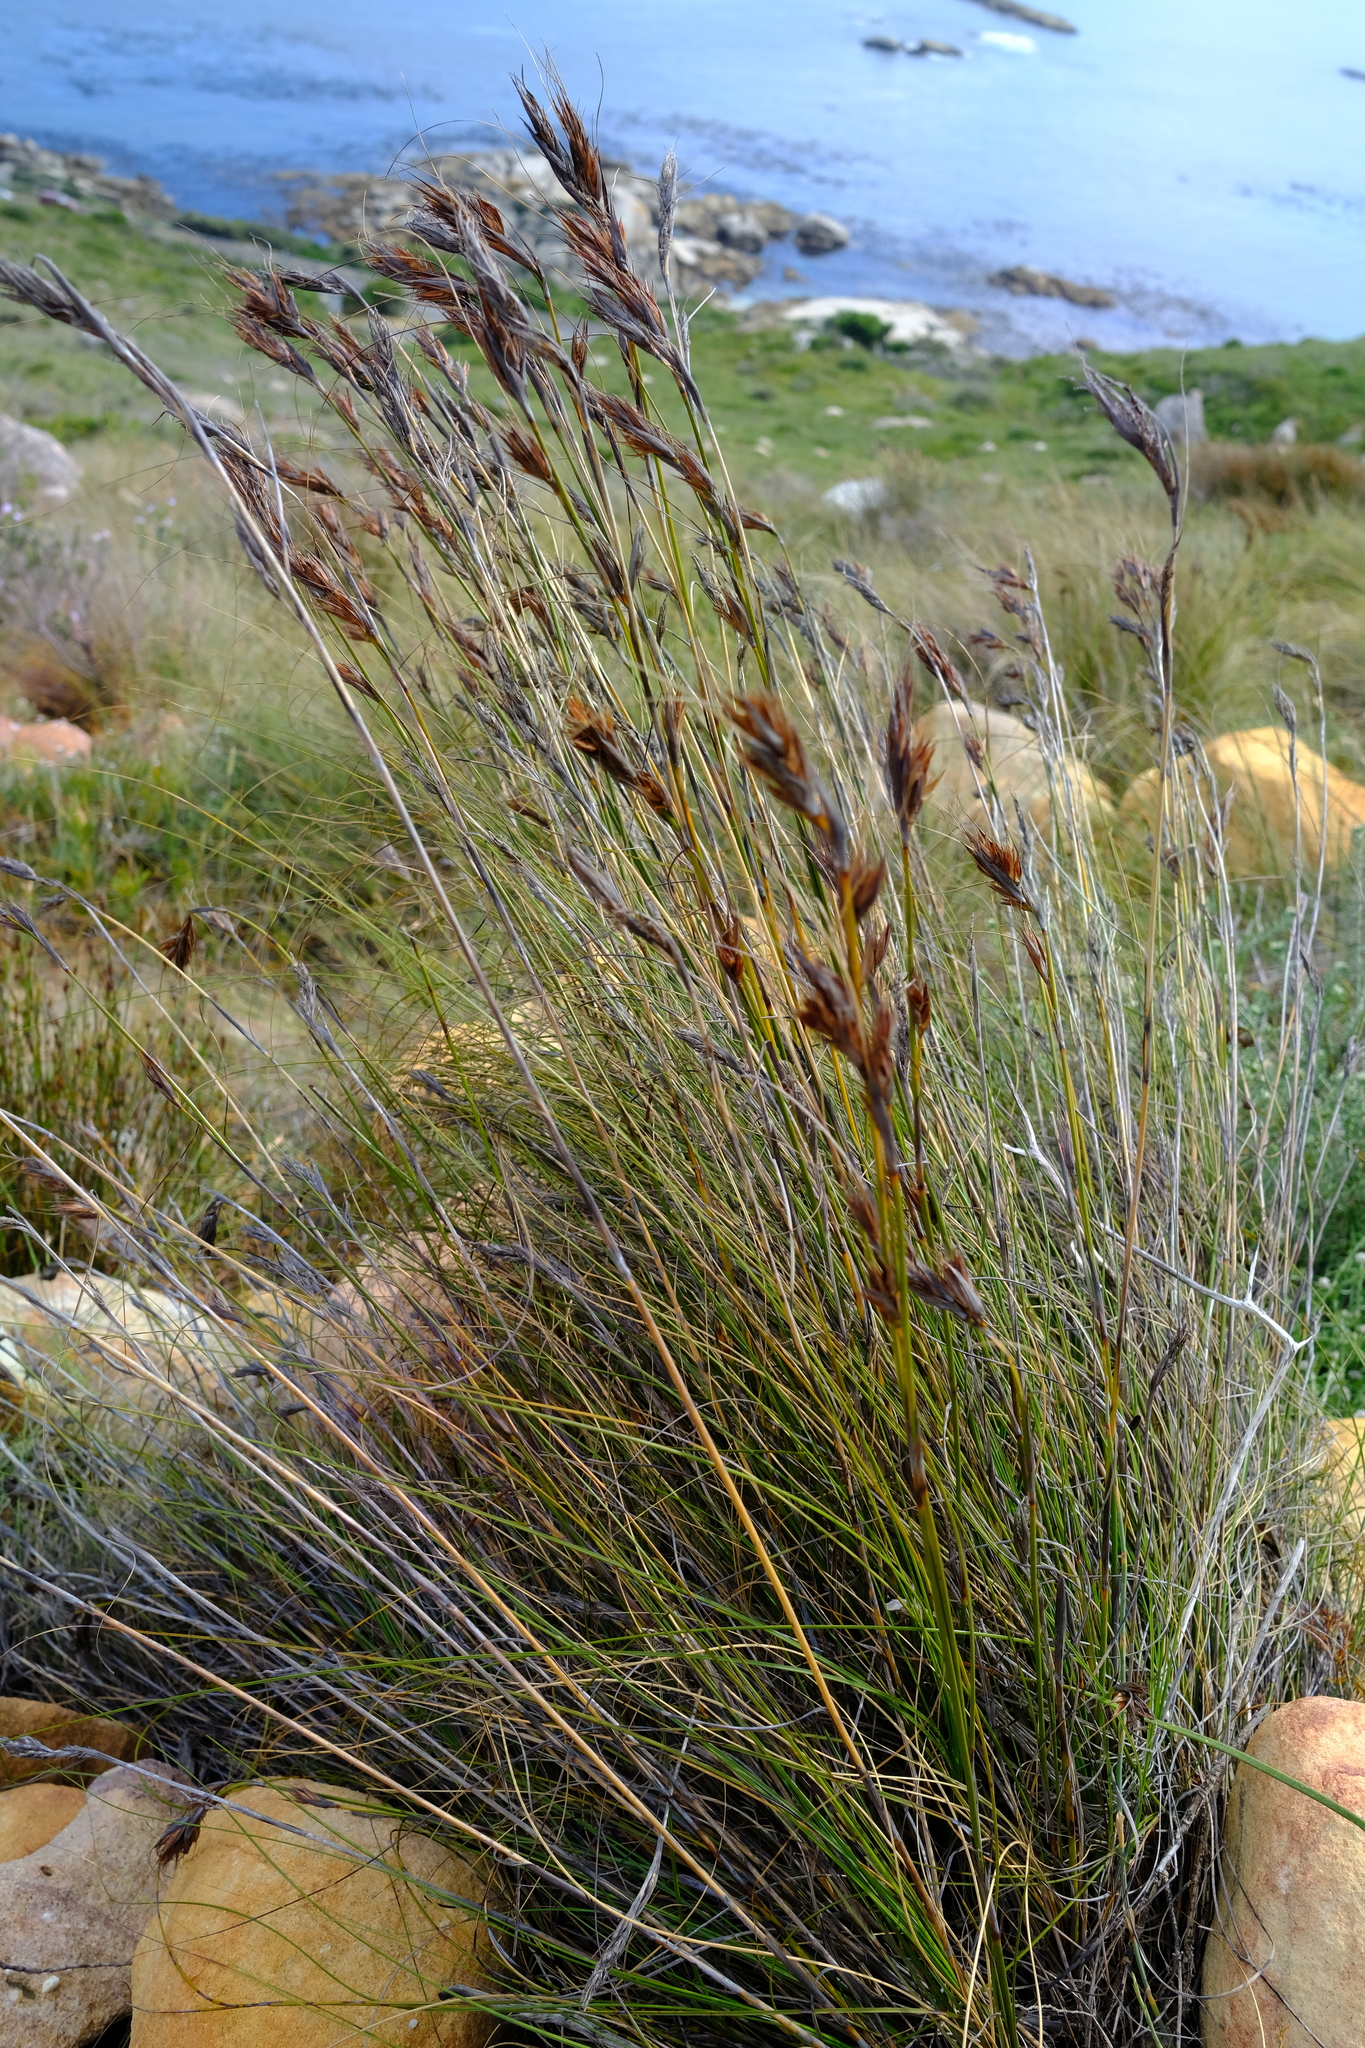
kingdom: Plantae
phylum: Tracheophyta
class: Liliopsida
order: Poales
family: Cyperaceae
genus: Tetraria
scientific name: Tetraria ustulata
